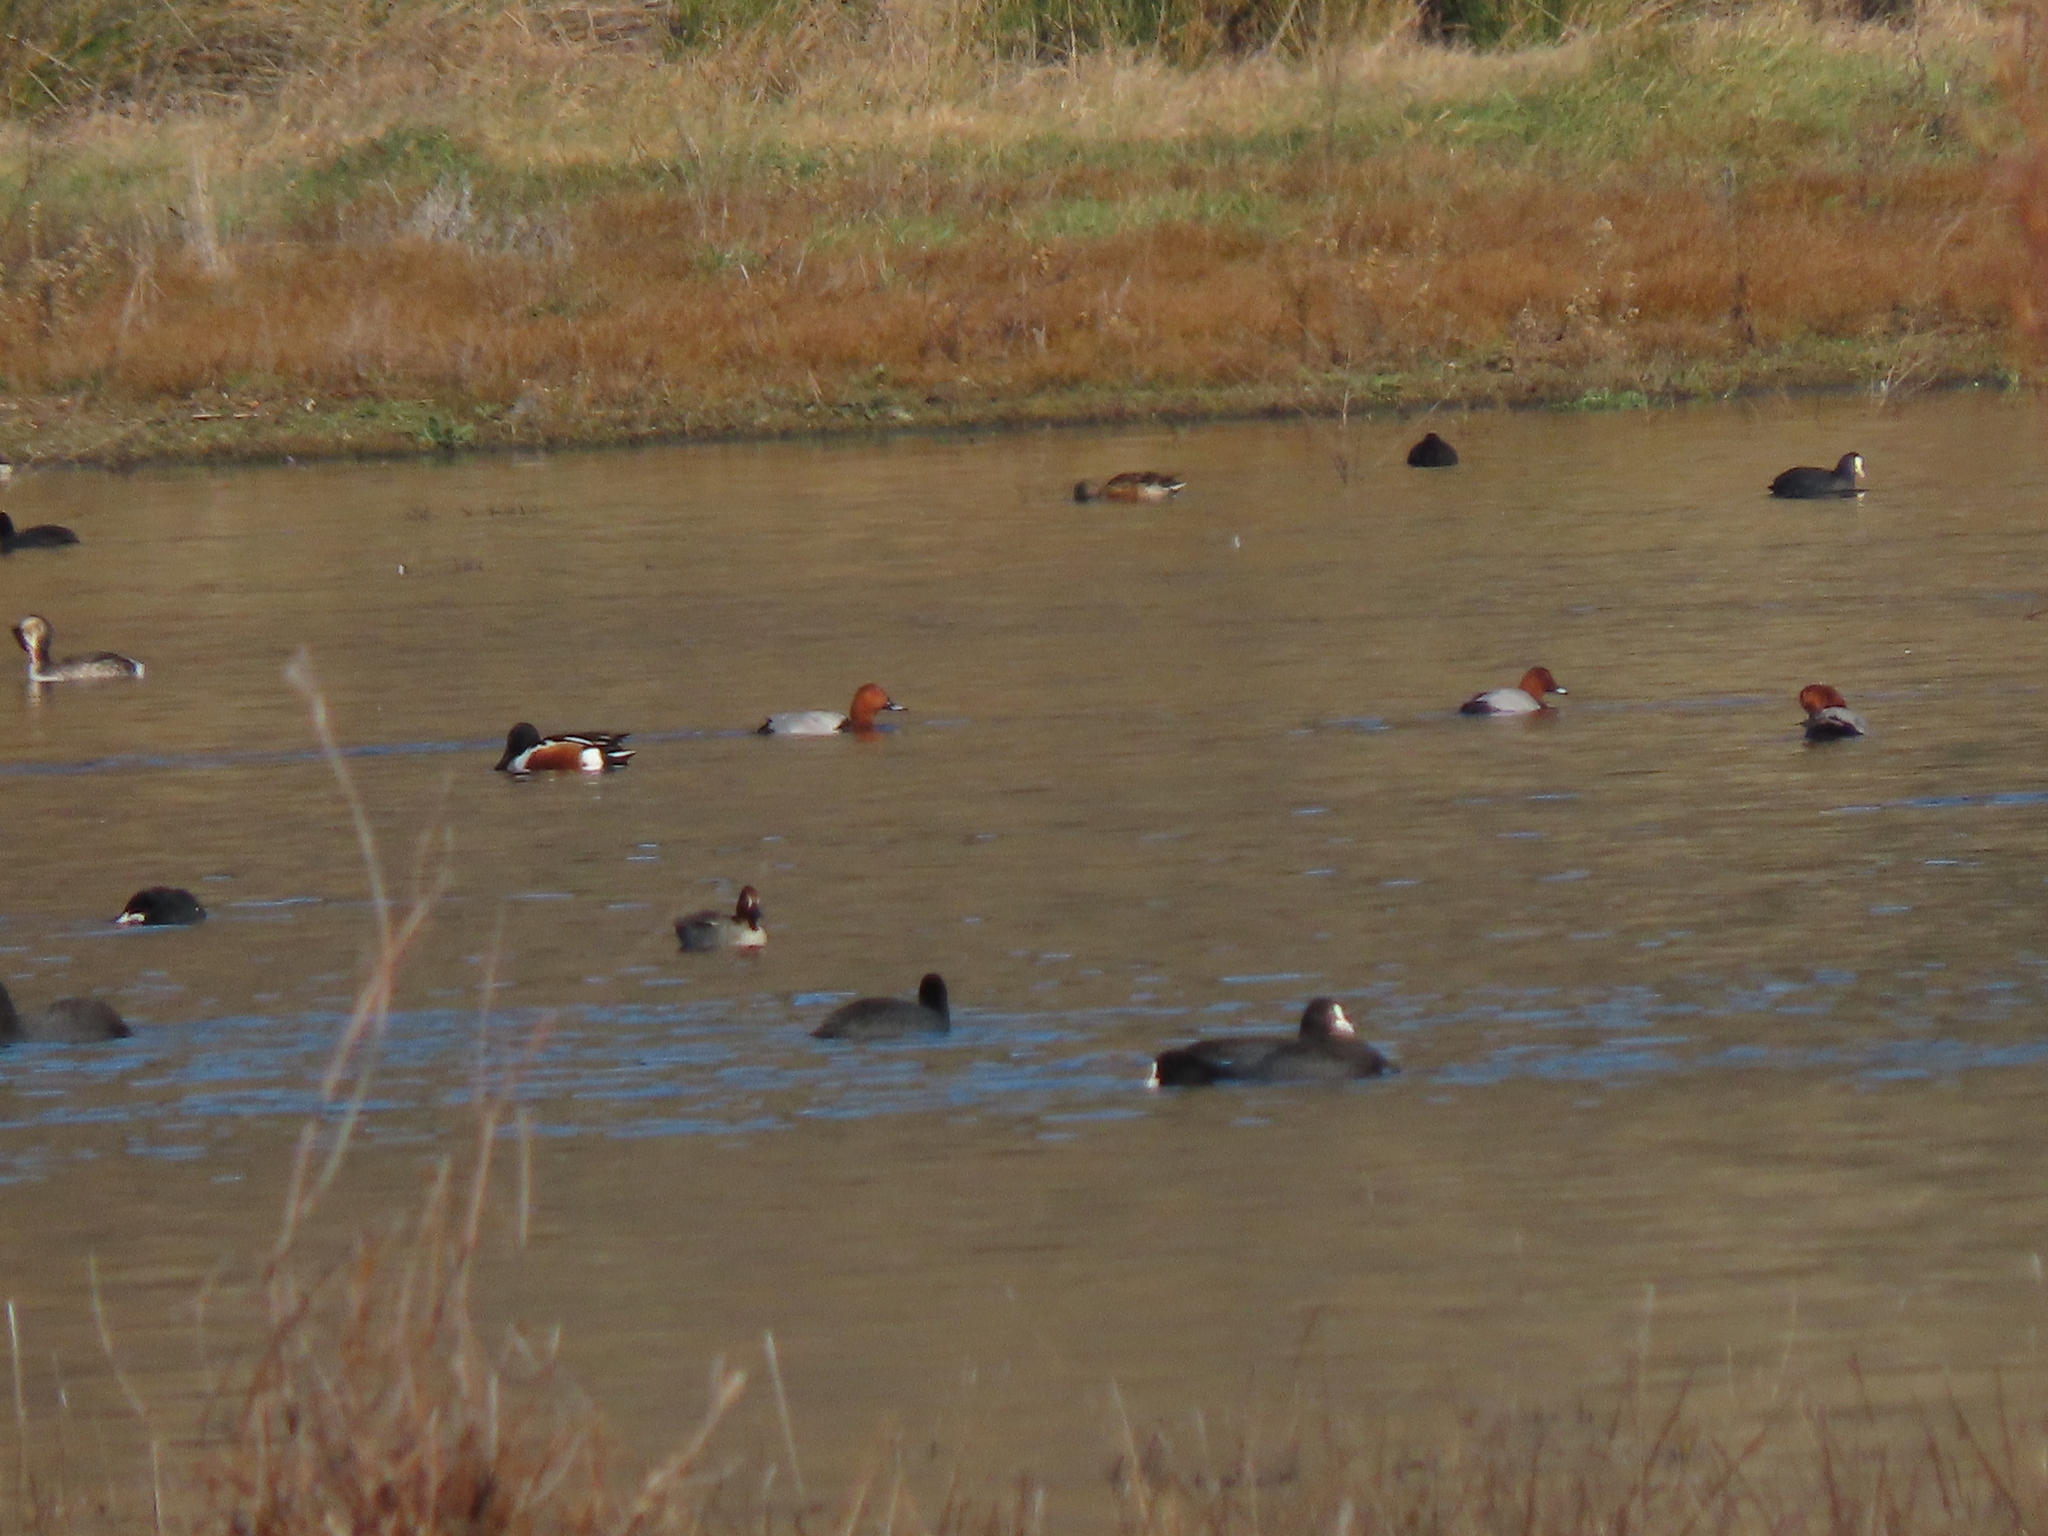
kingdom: Animalia
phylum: Chordata
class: Aves
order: Anseriformes
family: Anatidae
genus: Aythya
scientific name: Aythya ferina
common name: Common pochard
